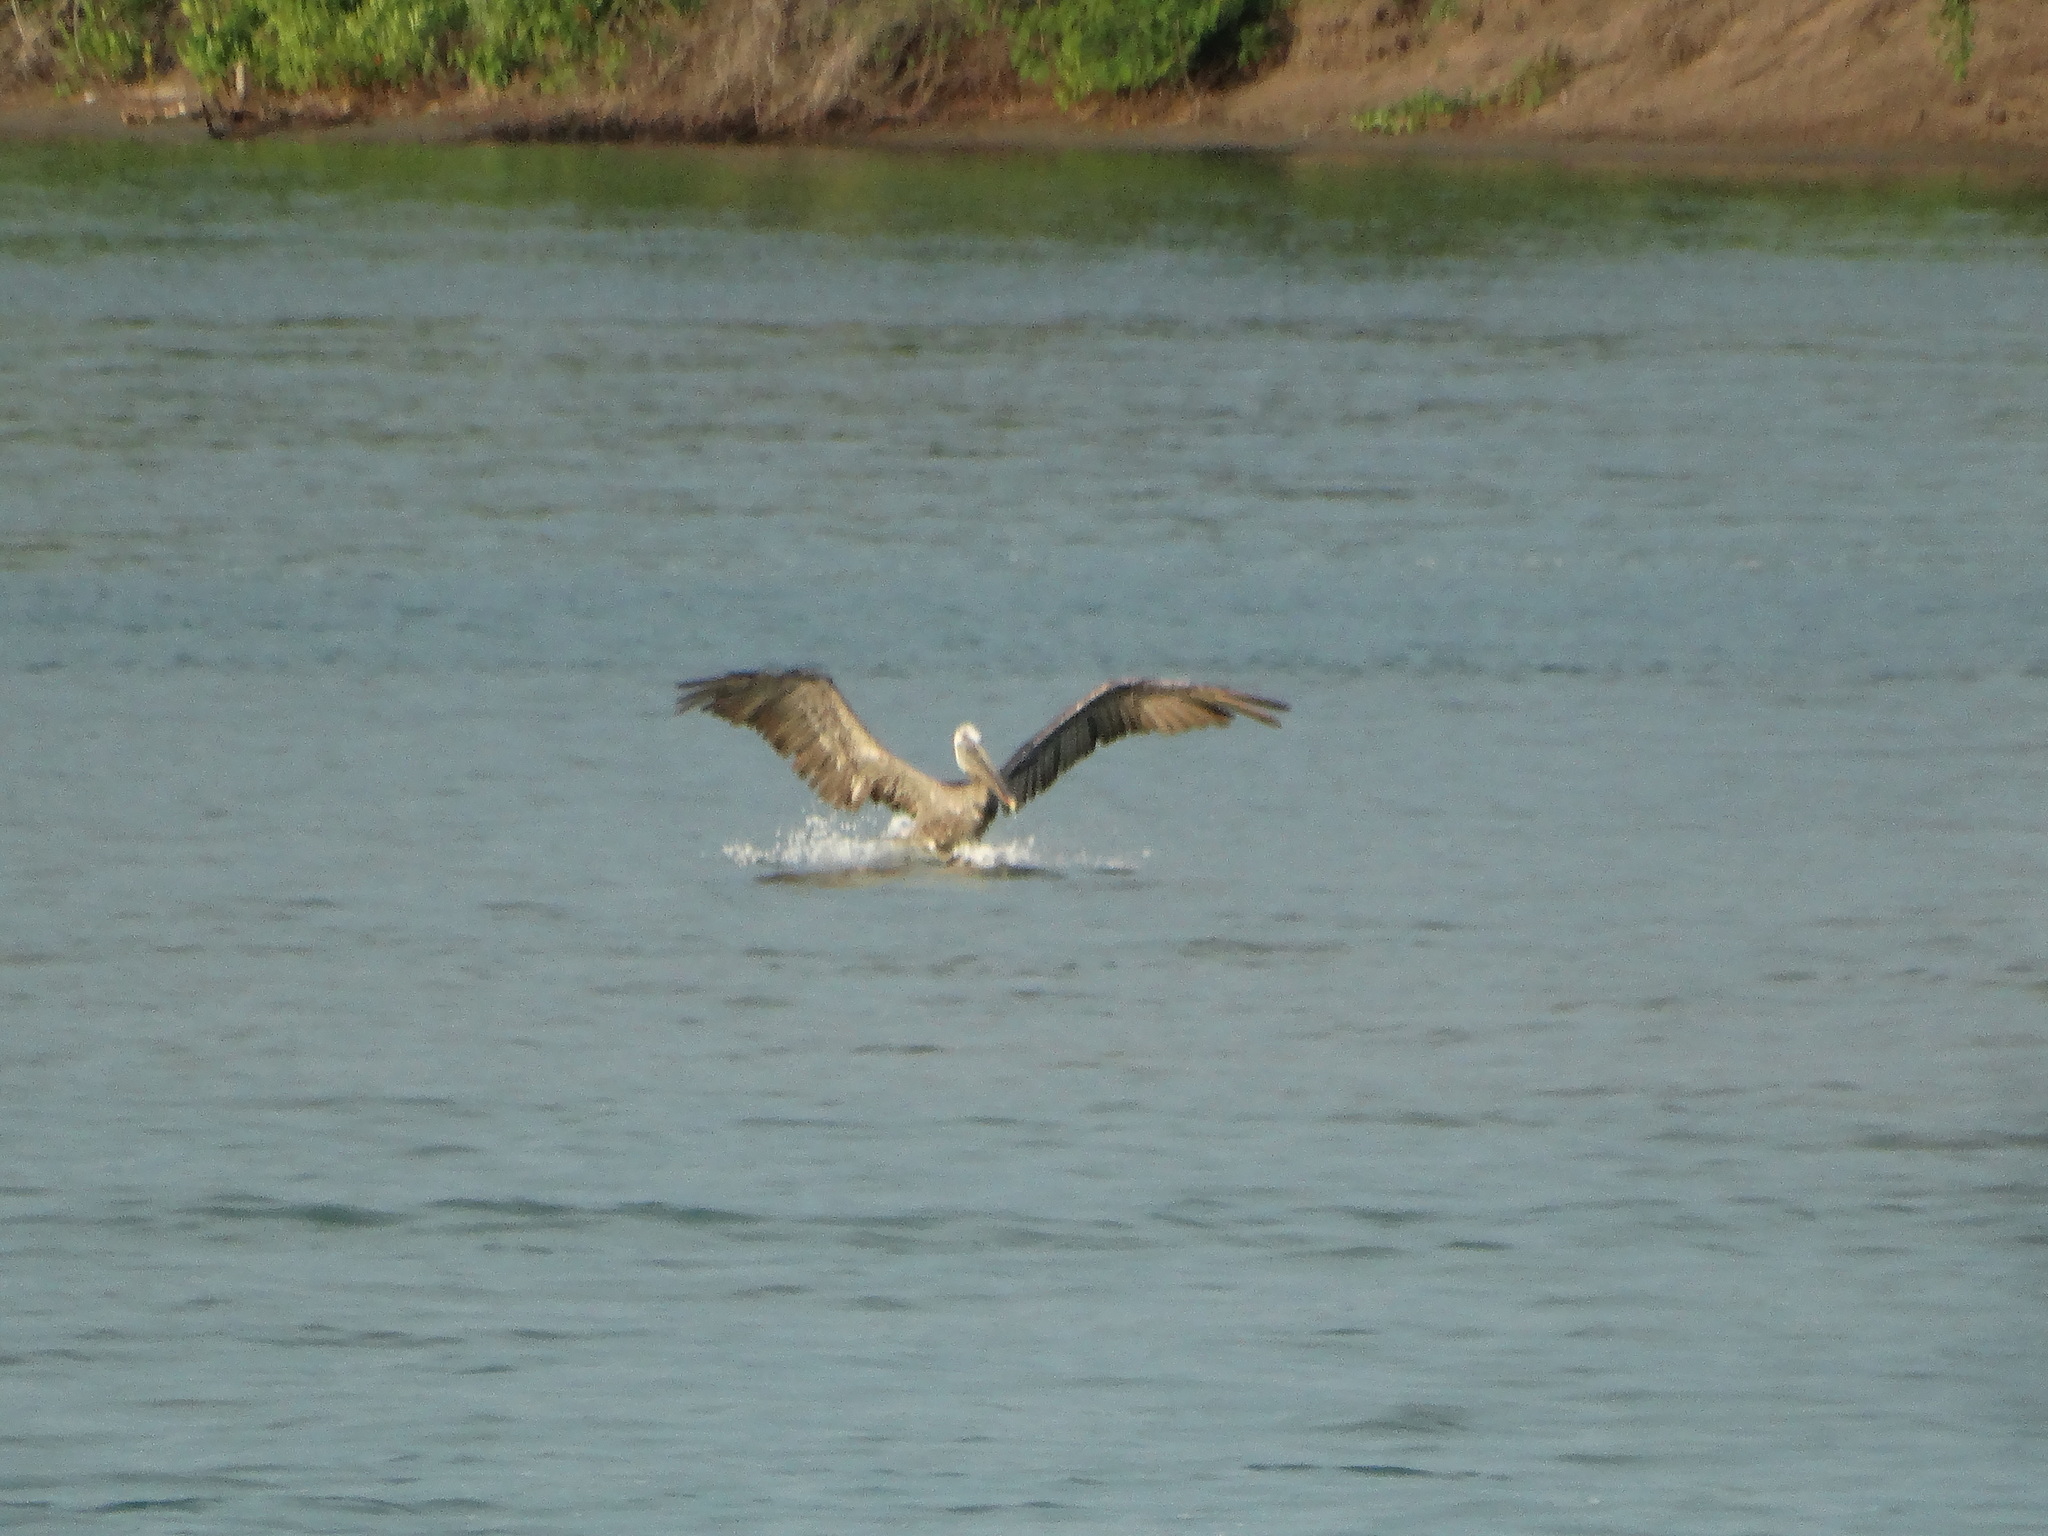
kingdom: Animalia
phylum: Chordata
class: Aves
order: Pelecaniformes
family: Pelecanidae
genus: Pelecanus
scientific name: Pelecanus occidentalis
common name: Brown pelican
